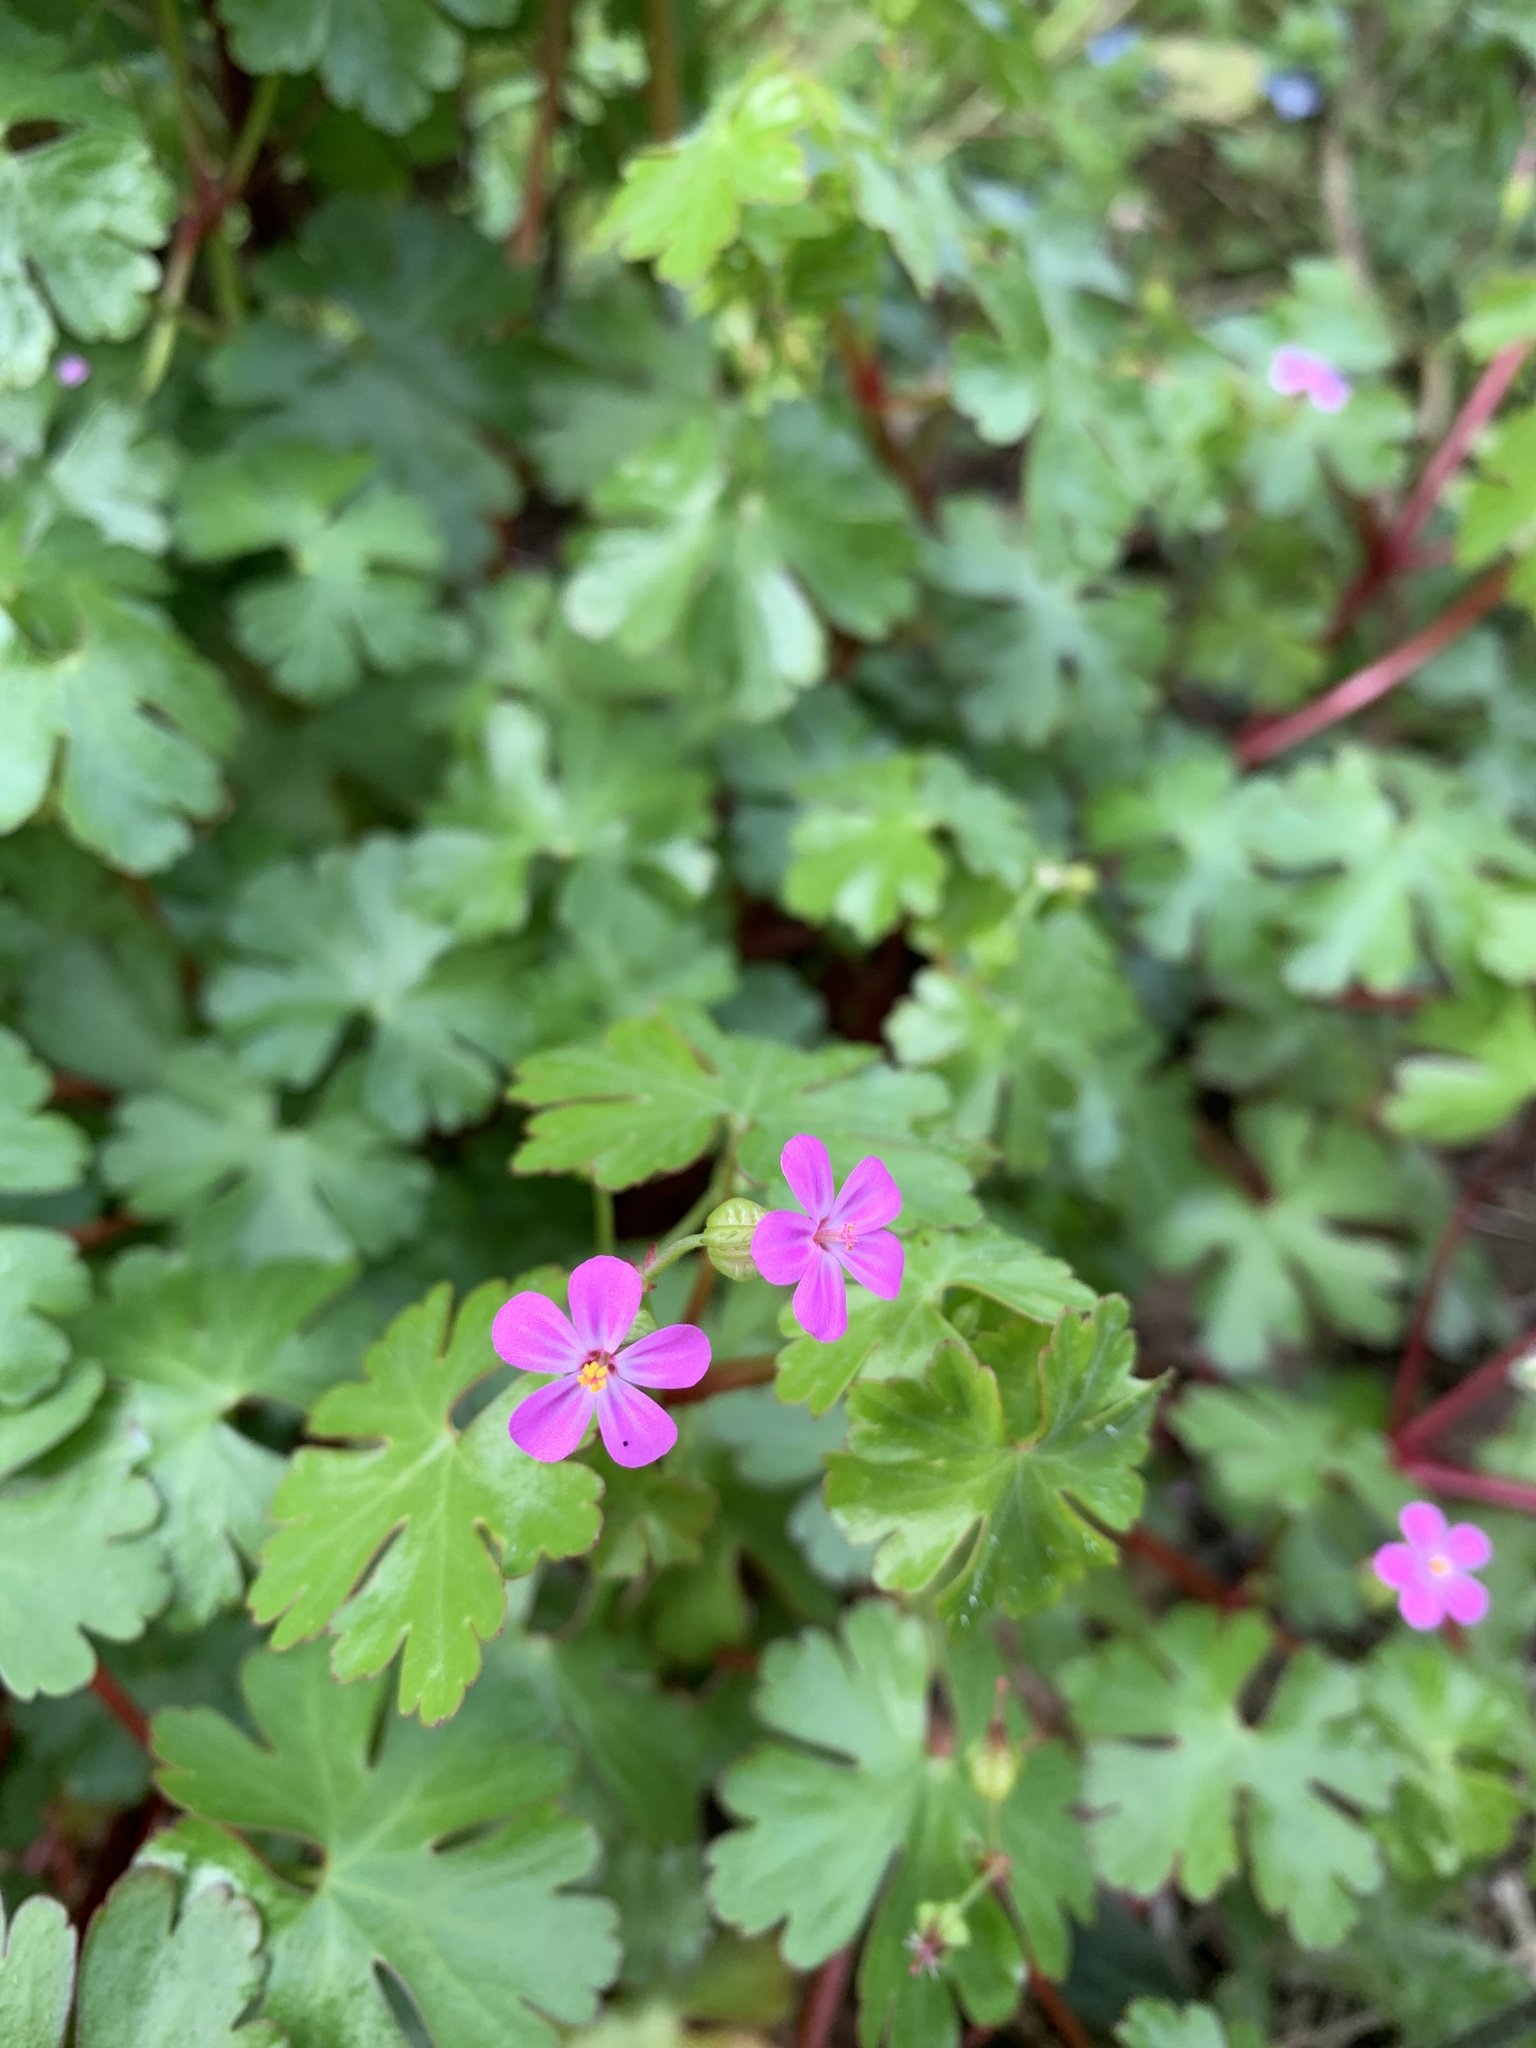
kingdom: Plantae
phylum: Tracheophyta
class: Magnoliopsida
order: Geraniales
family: Geraniaceae
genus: Geranium
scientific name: Geranium lucidum
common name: Shining crane's-bill
